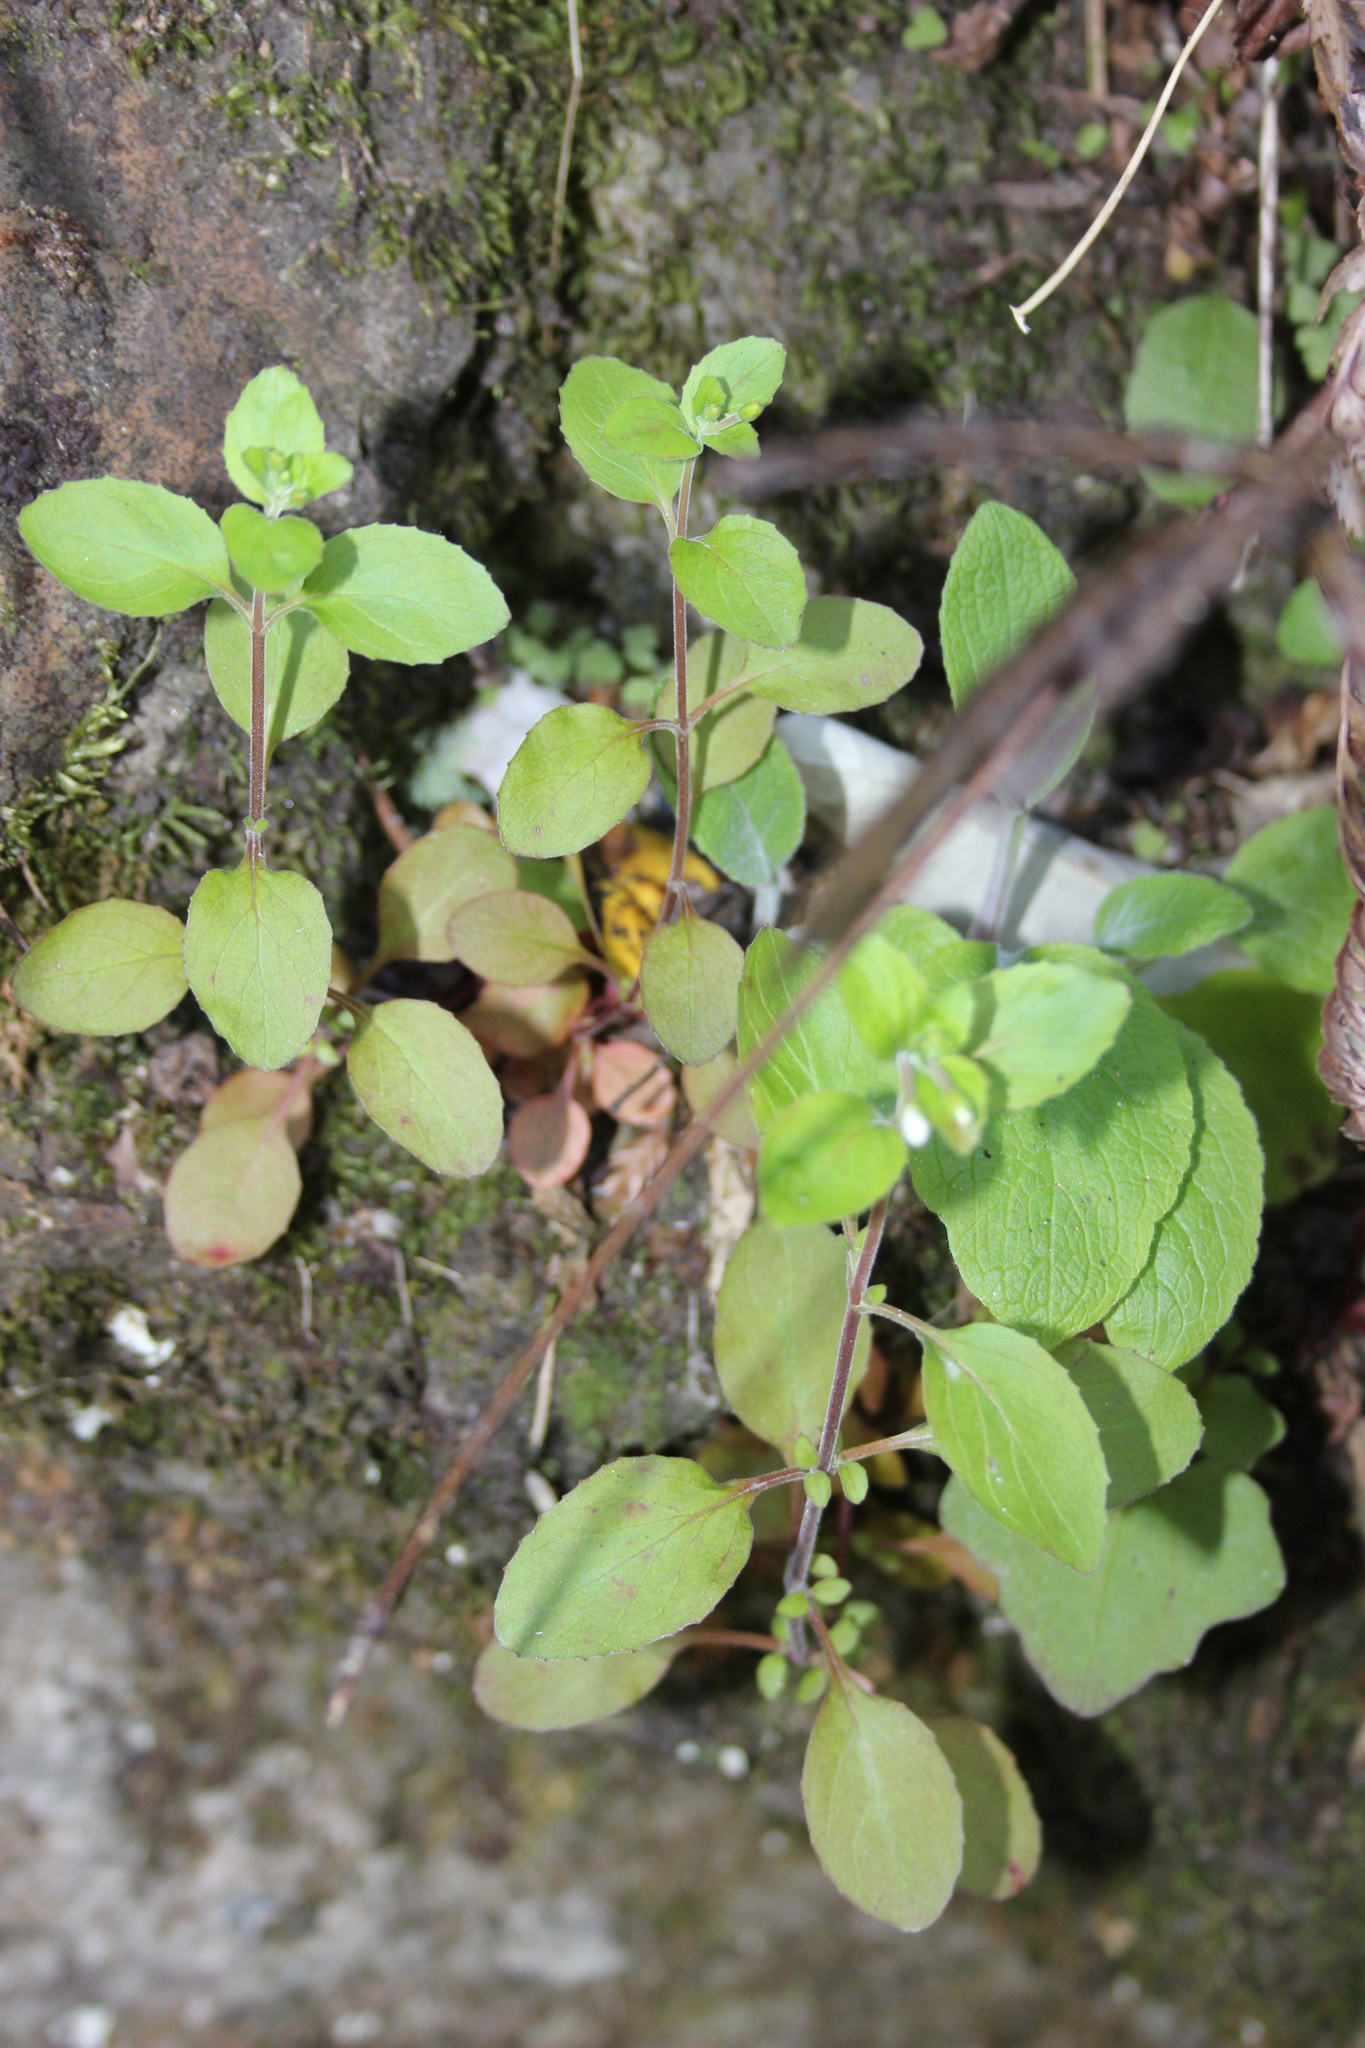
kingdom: Plantae
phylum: Tracheophyta
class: Magnoliopsida
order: Myrtales
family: Onagraceae
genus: Epilobium
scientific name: Epilobium pubens
